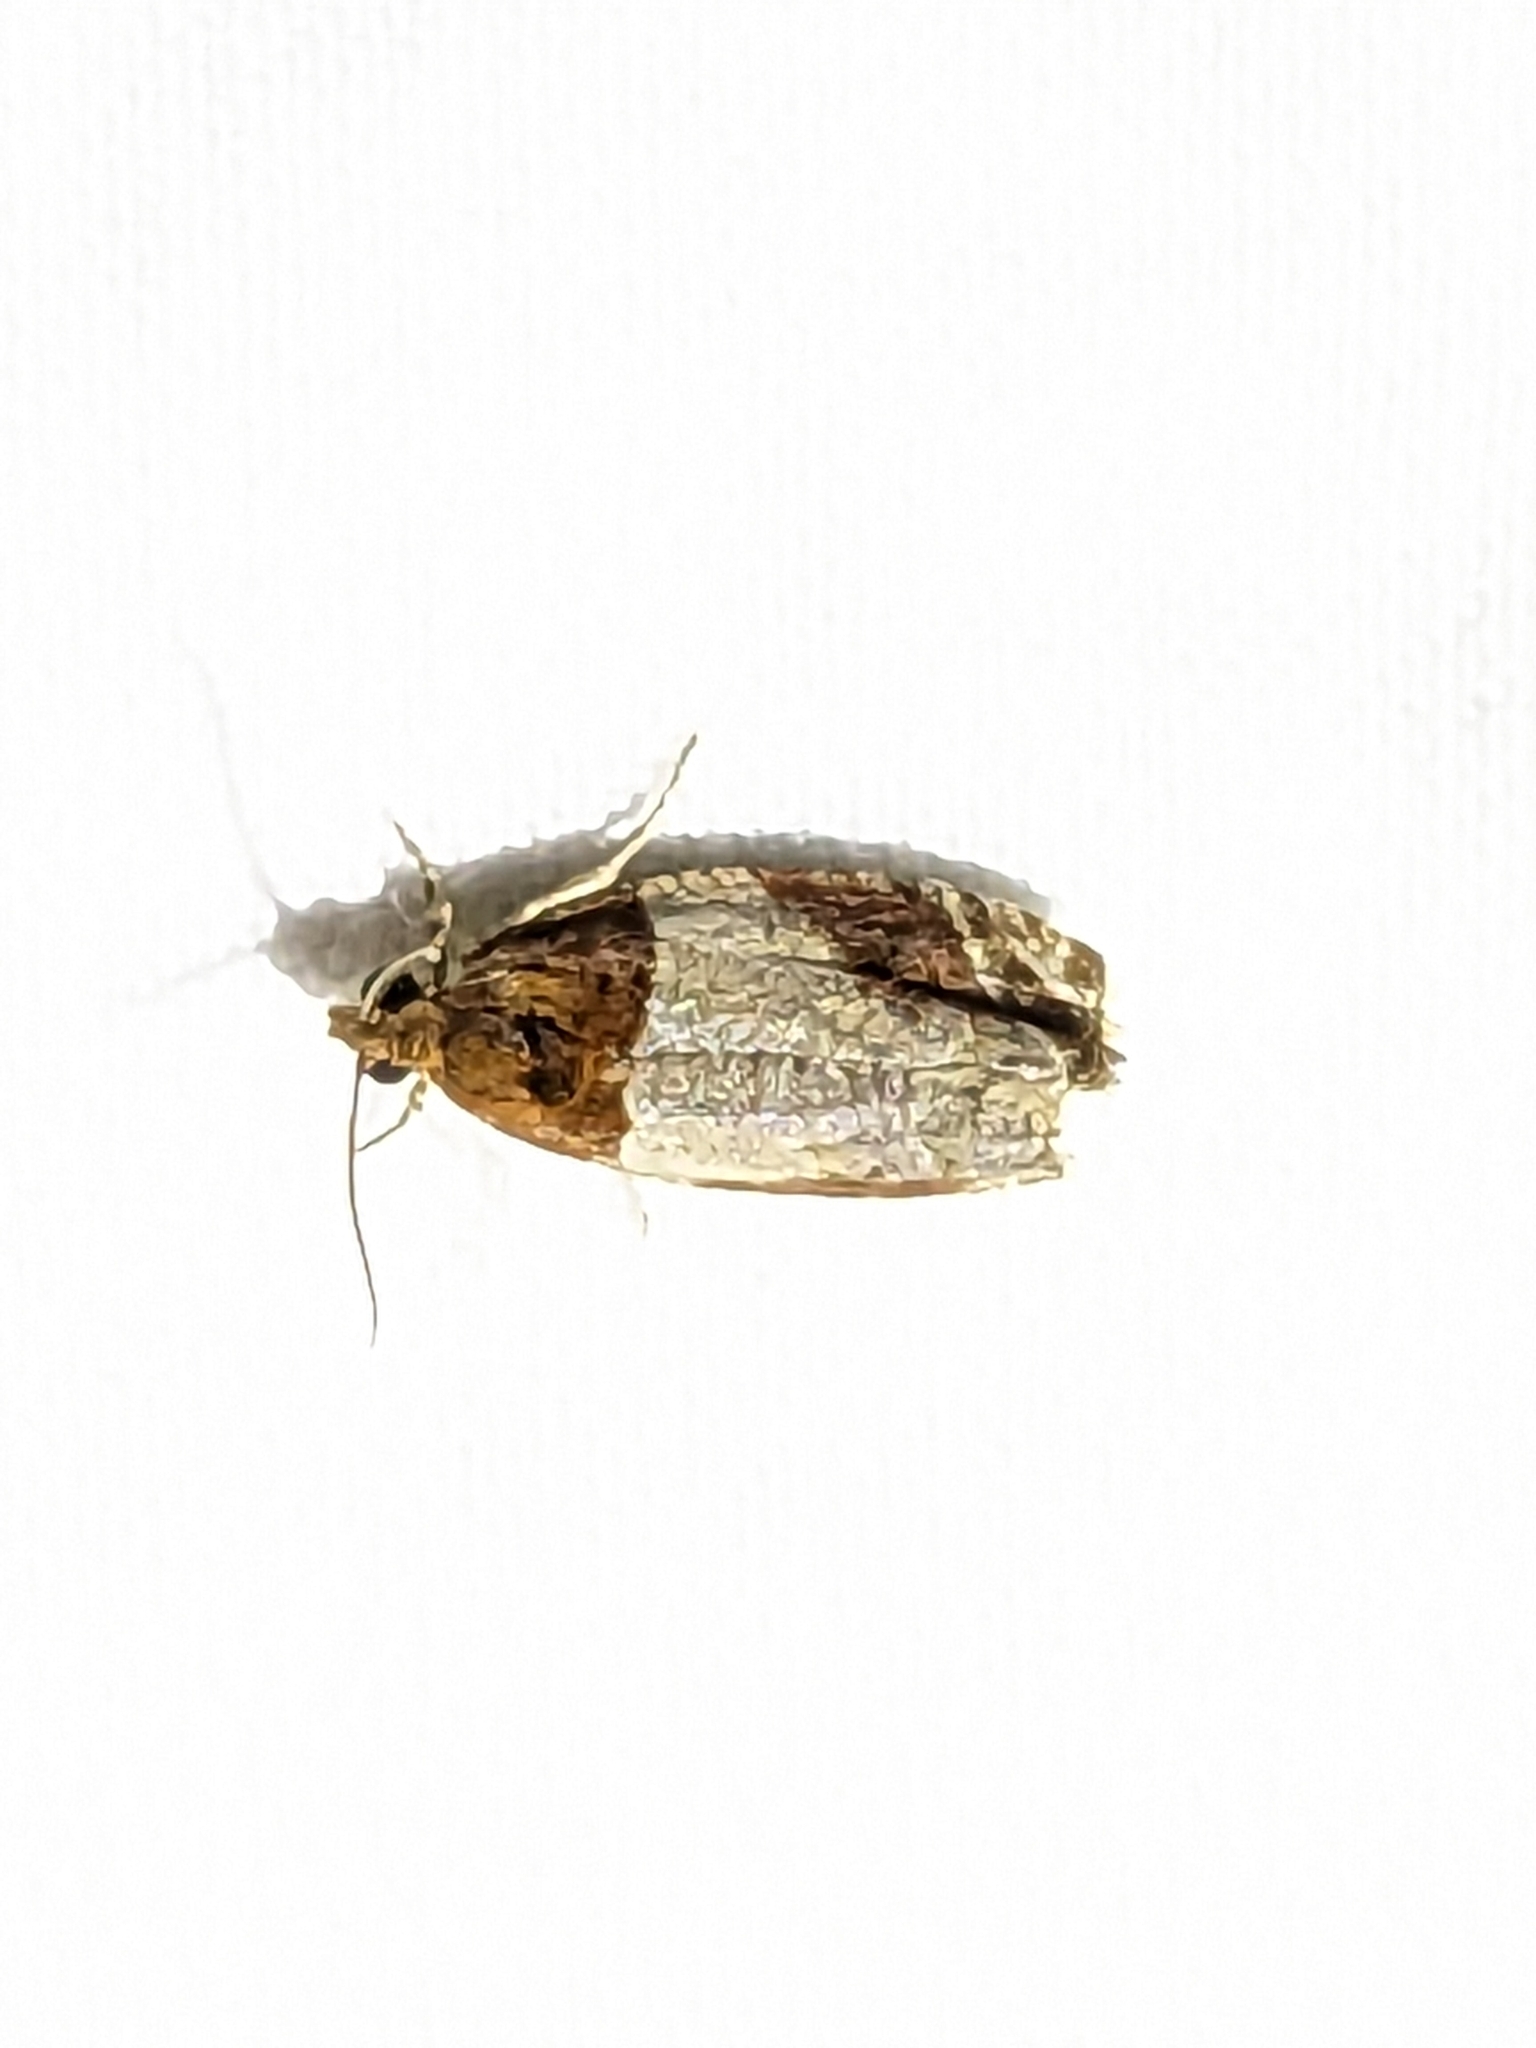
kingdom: Animalia
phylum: Arthropoda
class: Insecta
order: Lepidoptera
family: Tortricidae
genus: Olethreutes
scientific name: Olethreutes ferriferana
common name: Hydrangea leaftier moth
